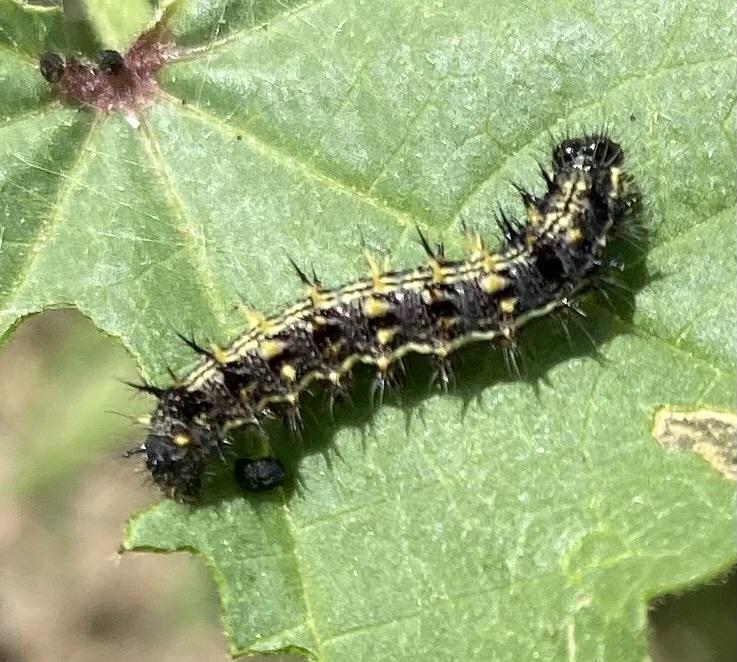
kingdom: Animalia
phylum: Arthropoda
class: Insecta
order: Lepidoptera
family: Nymphalidae
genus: Vanessa
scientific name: Vanessa cardui
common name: Painted lady
